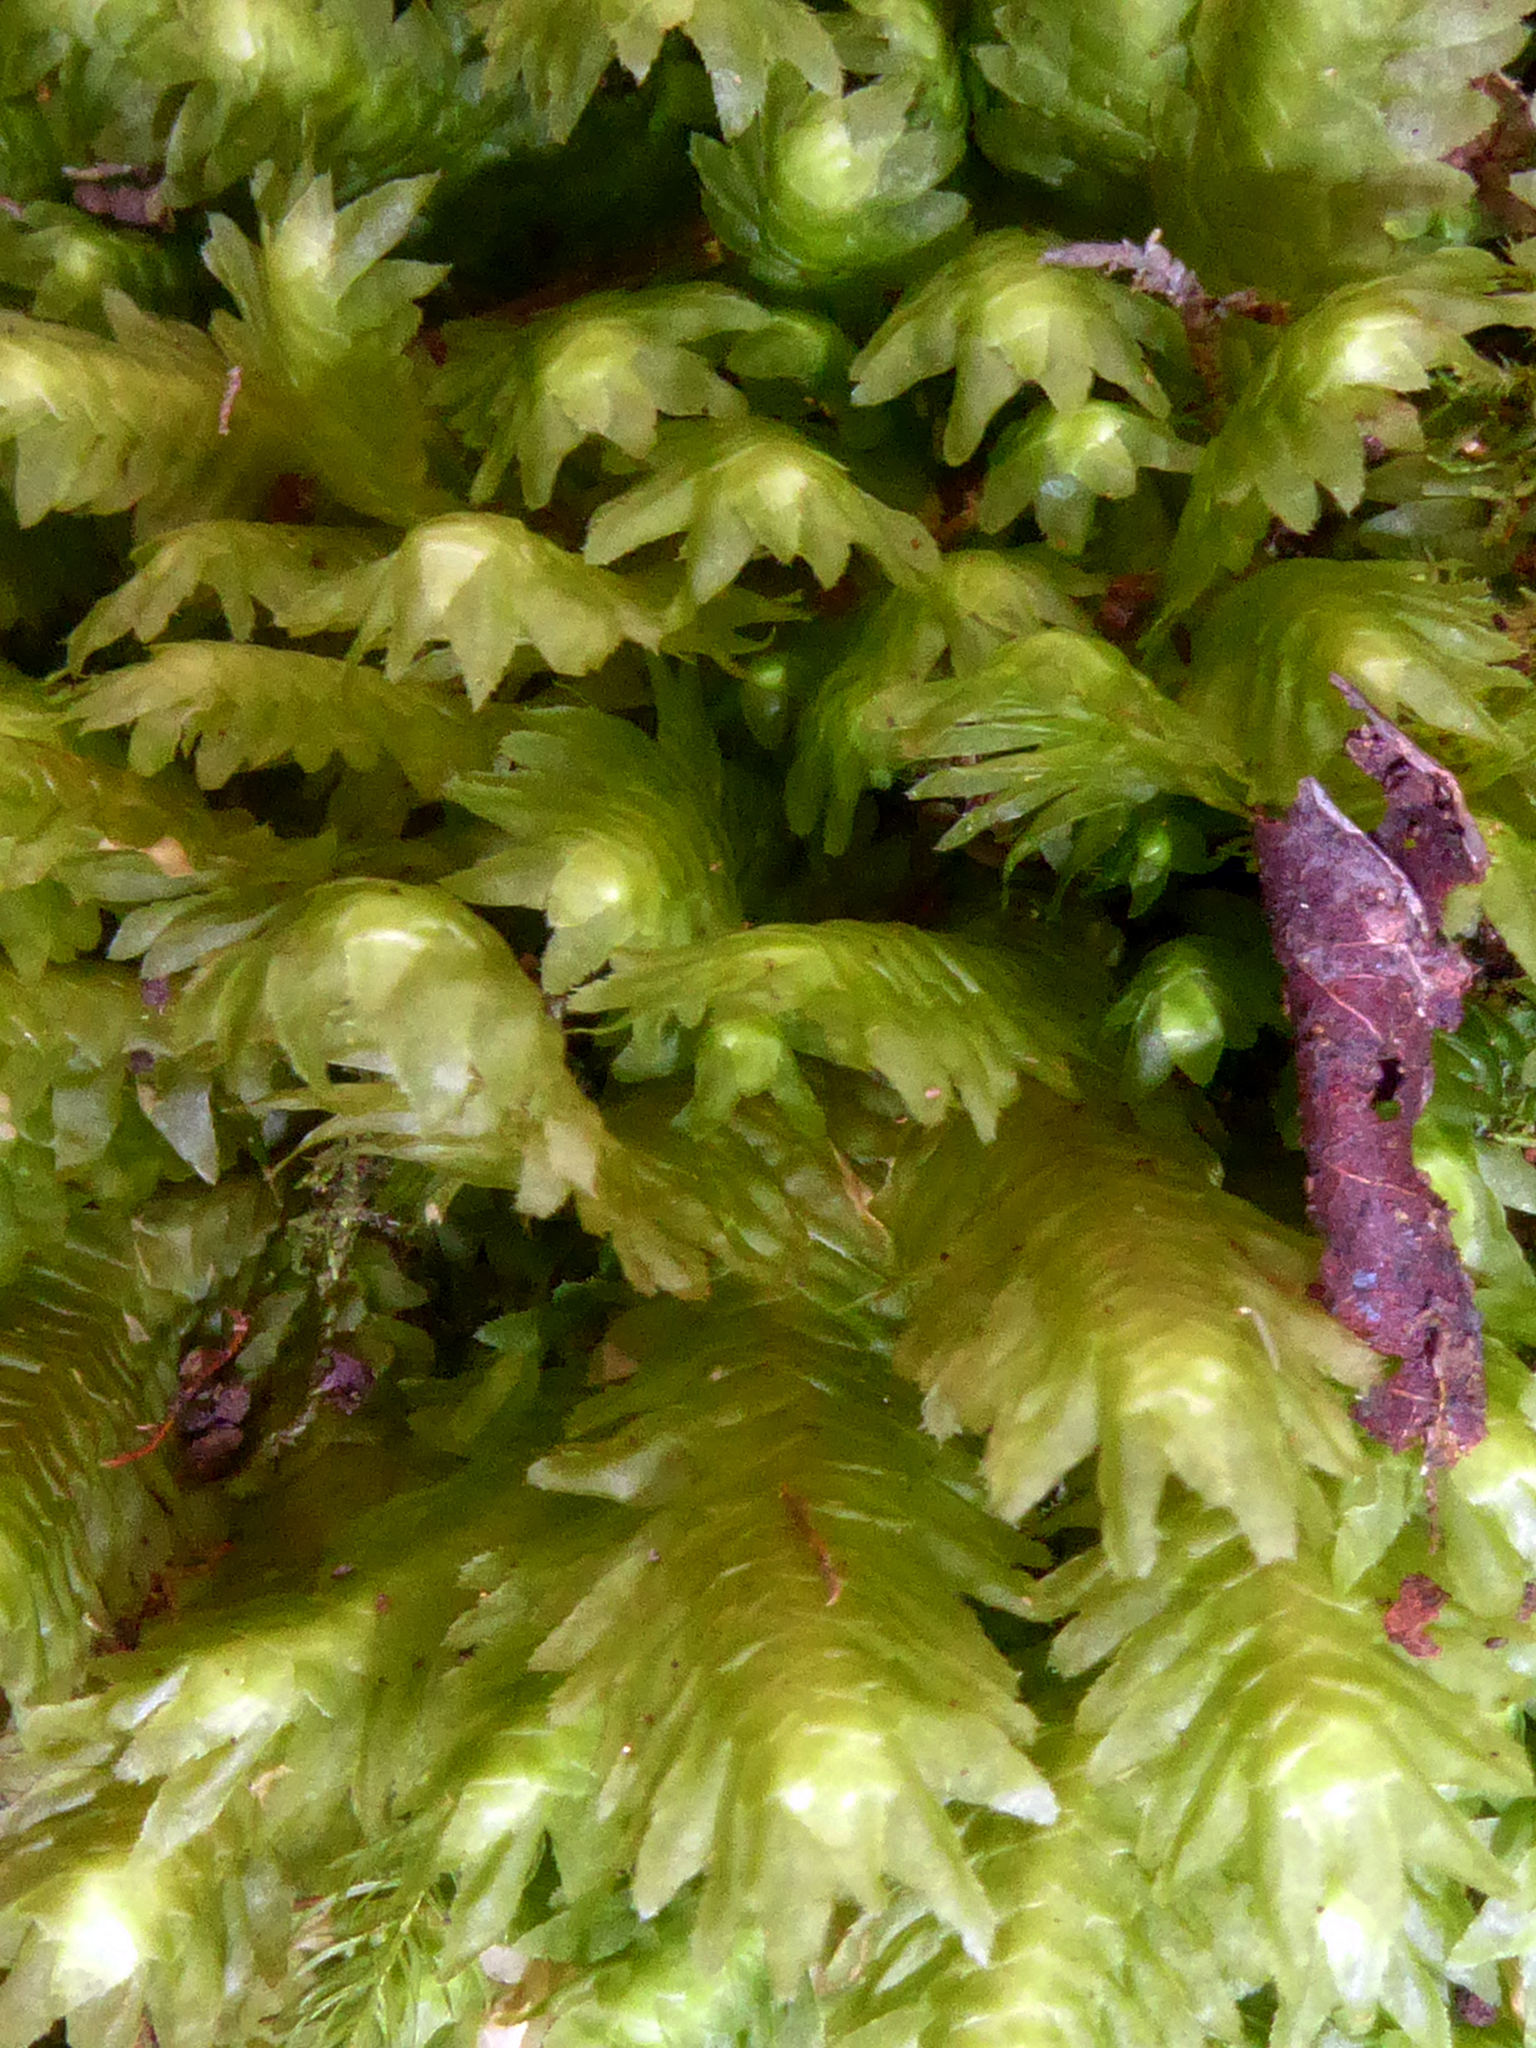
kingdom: Plantae
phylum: Marchantiophyta
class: Jungermanniopsida
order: Jungermanniales
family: Schistochilaceae
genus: Schistochila
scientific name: Schistochila aligera
